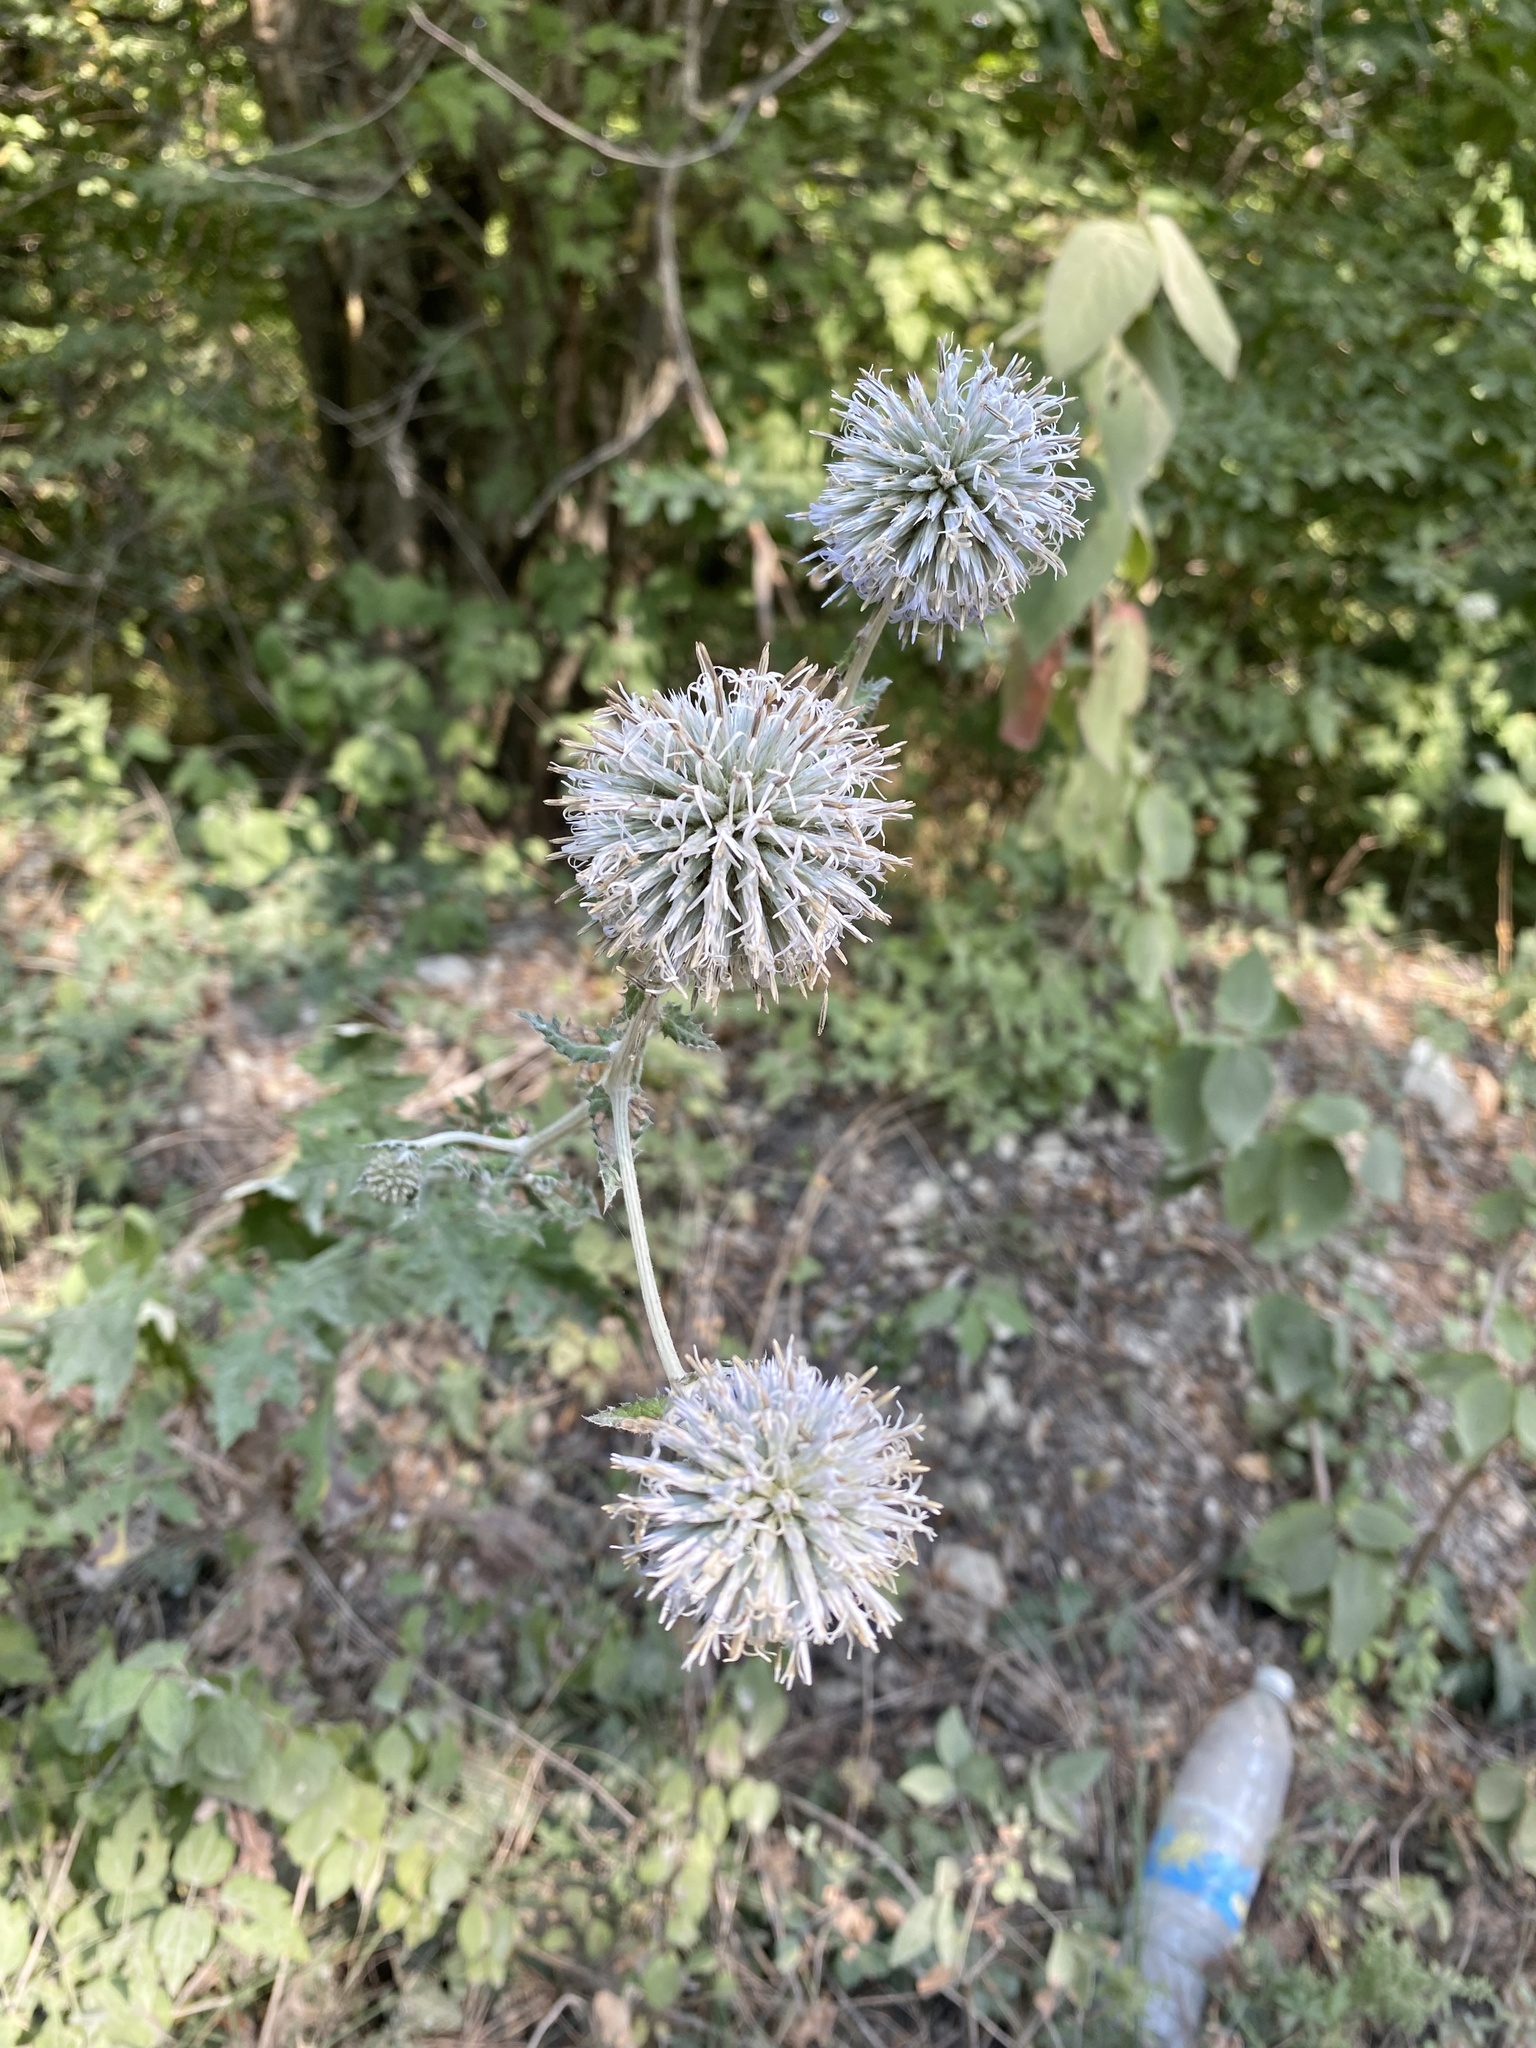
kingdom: Plantae
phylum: Tracheophyta
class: Magnoliopsida
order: Asterales
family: Asteraceae
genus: Echinops
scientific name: Echinops sphaerocephalus
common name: Glandular globe-thistle
